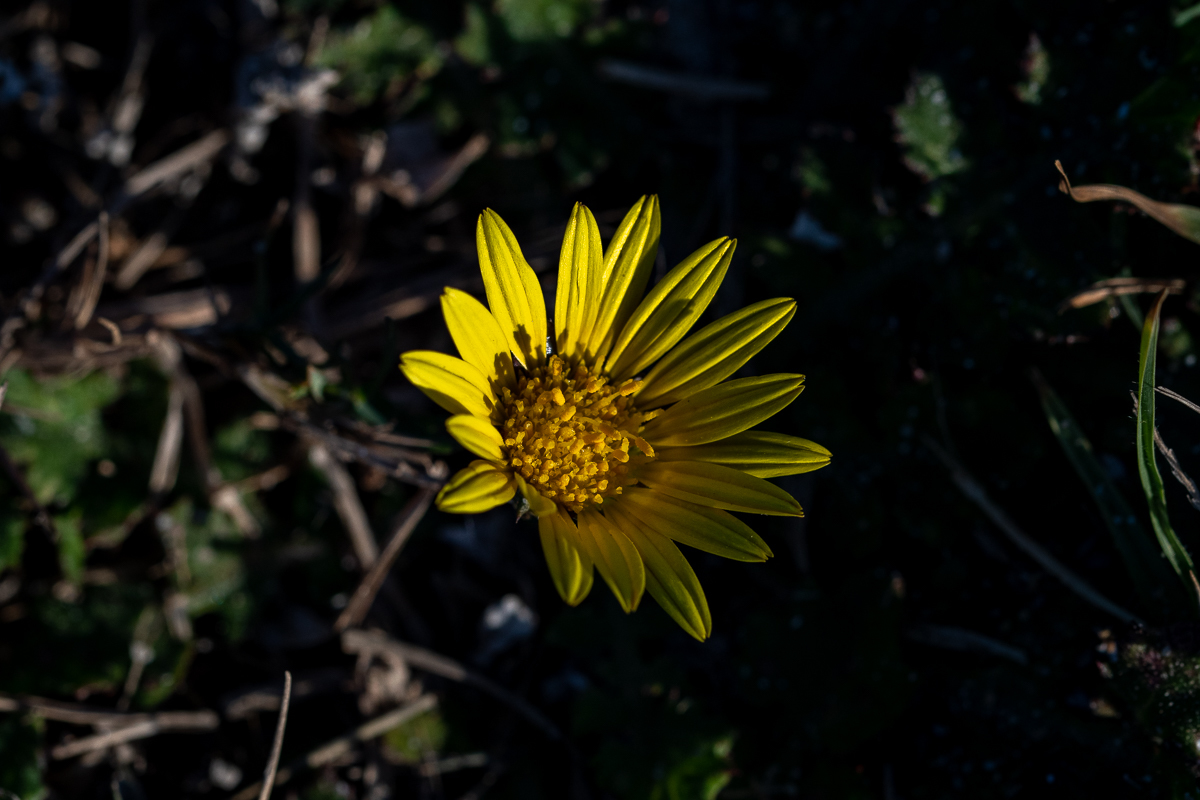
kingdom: Plantae
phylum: Tracheophyta
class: Magnoliopsida
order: Asterales
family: Asteraceae
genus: Arctotheca
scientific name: Arctotheca prostrata
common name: Capeweed
